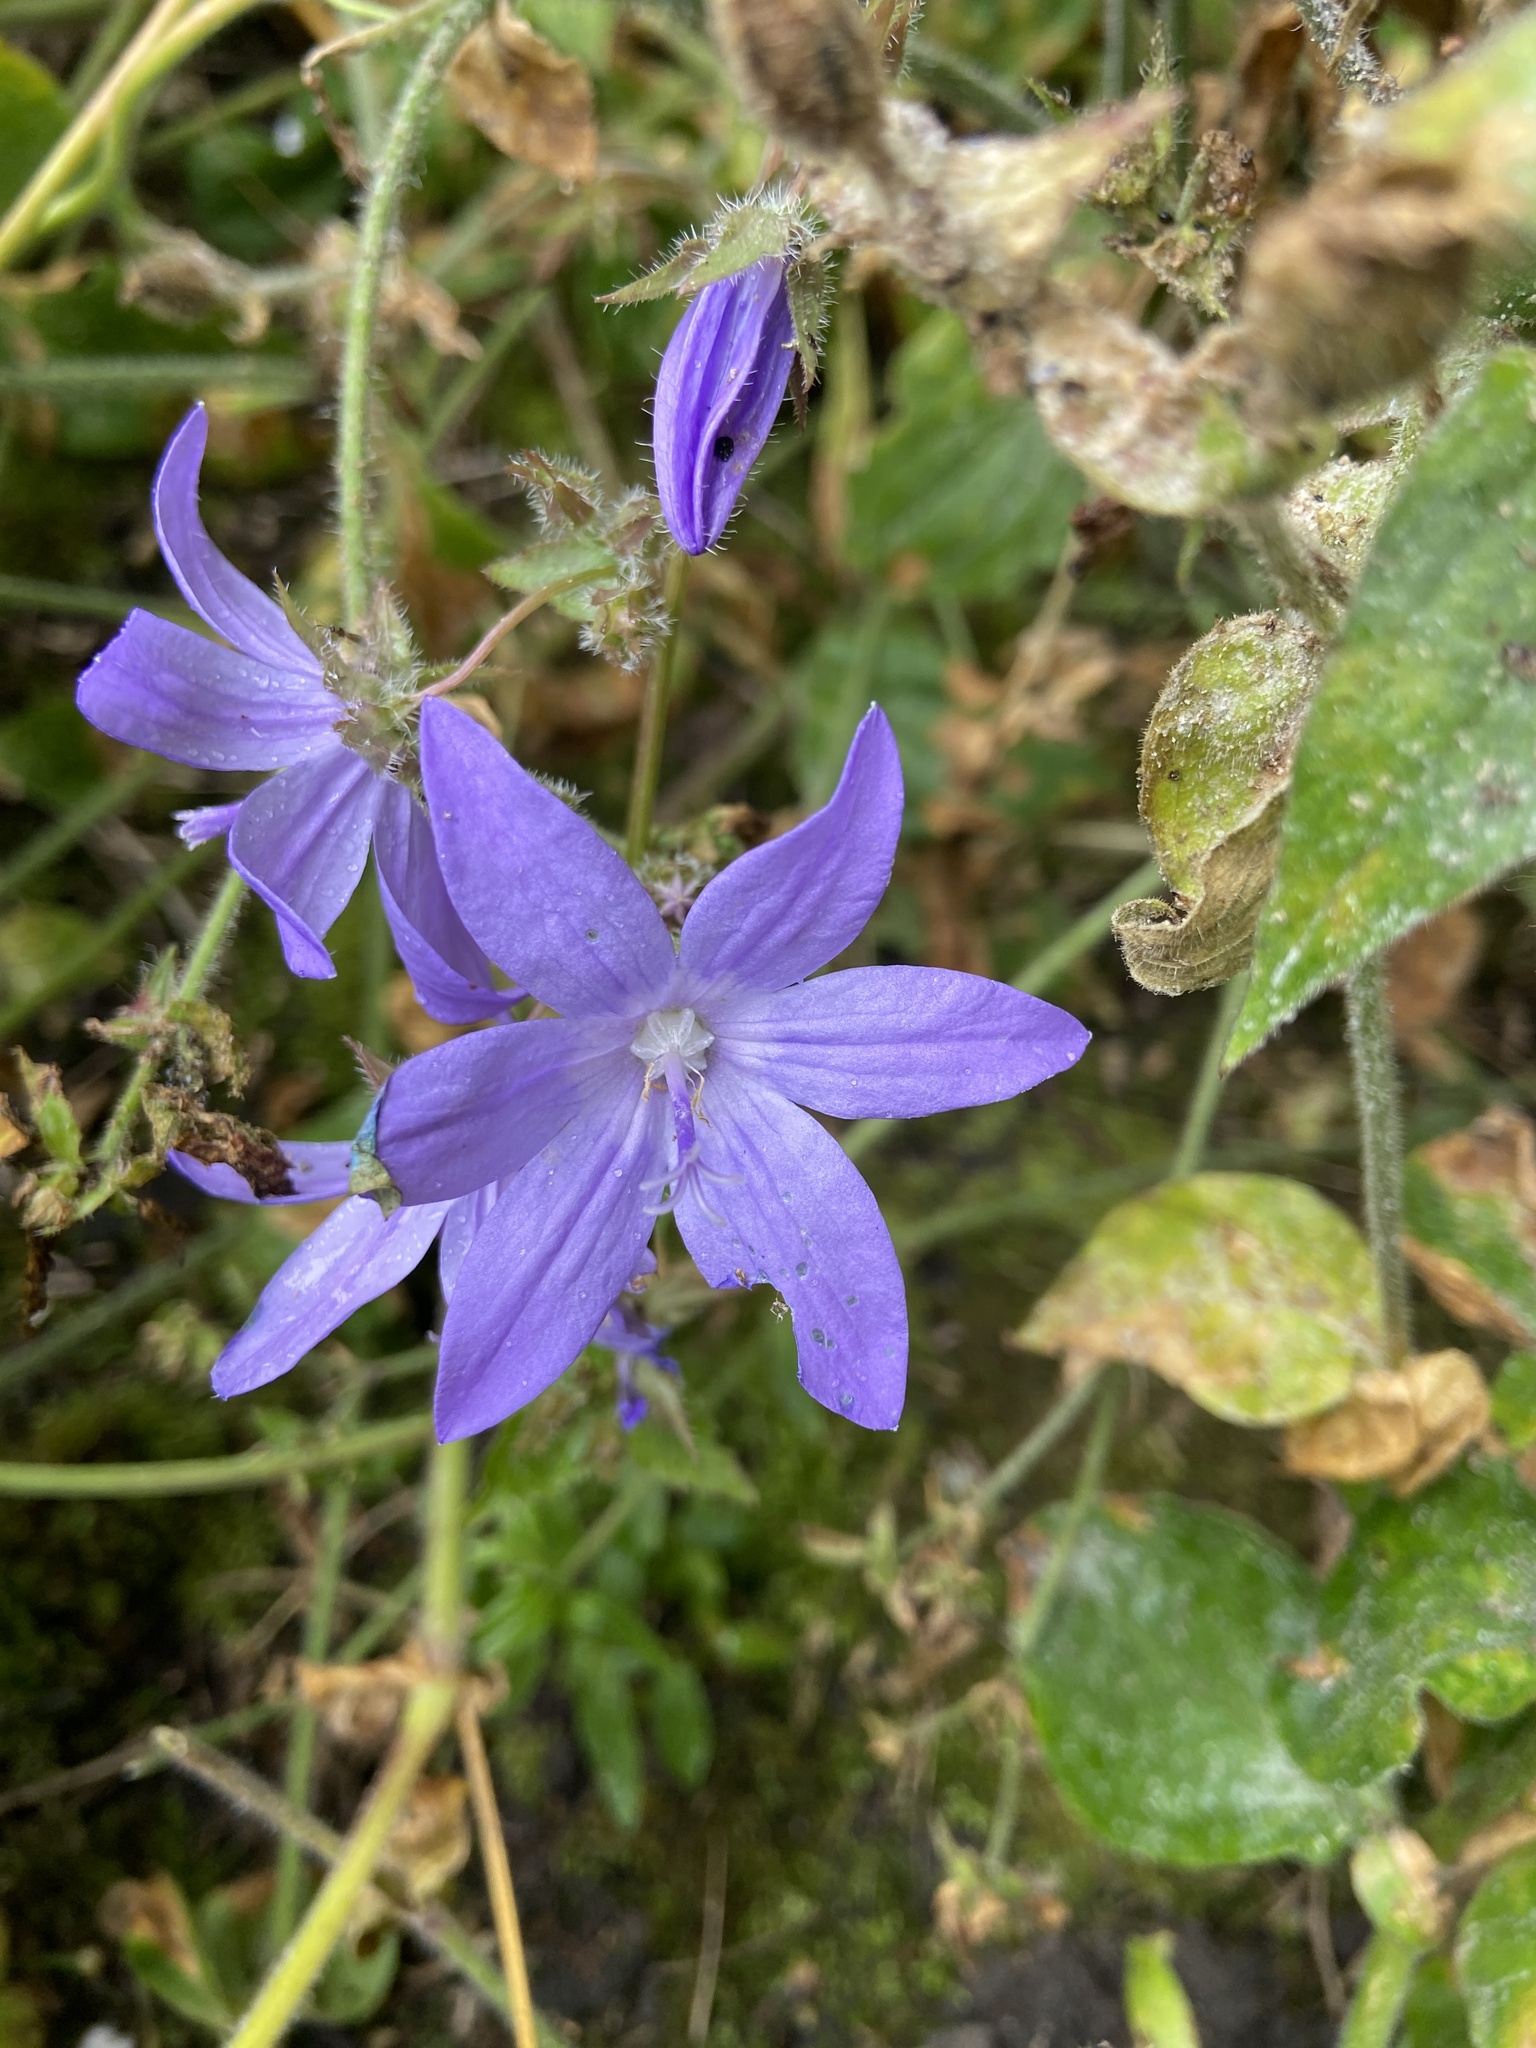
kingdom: Plantae
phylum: Tracheophyta
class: Magnoliopsida
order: Asterales
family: Campanulaceae
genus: Campanula
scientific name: Campanula poscharskyana
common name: Trailing bellflower
